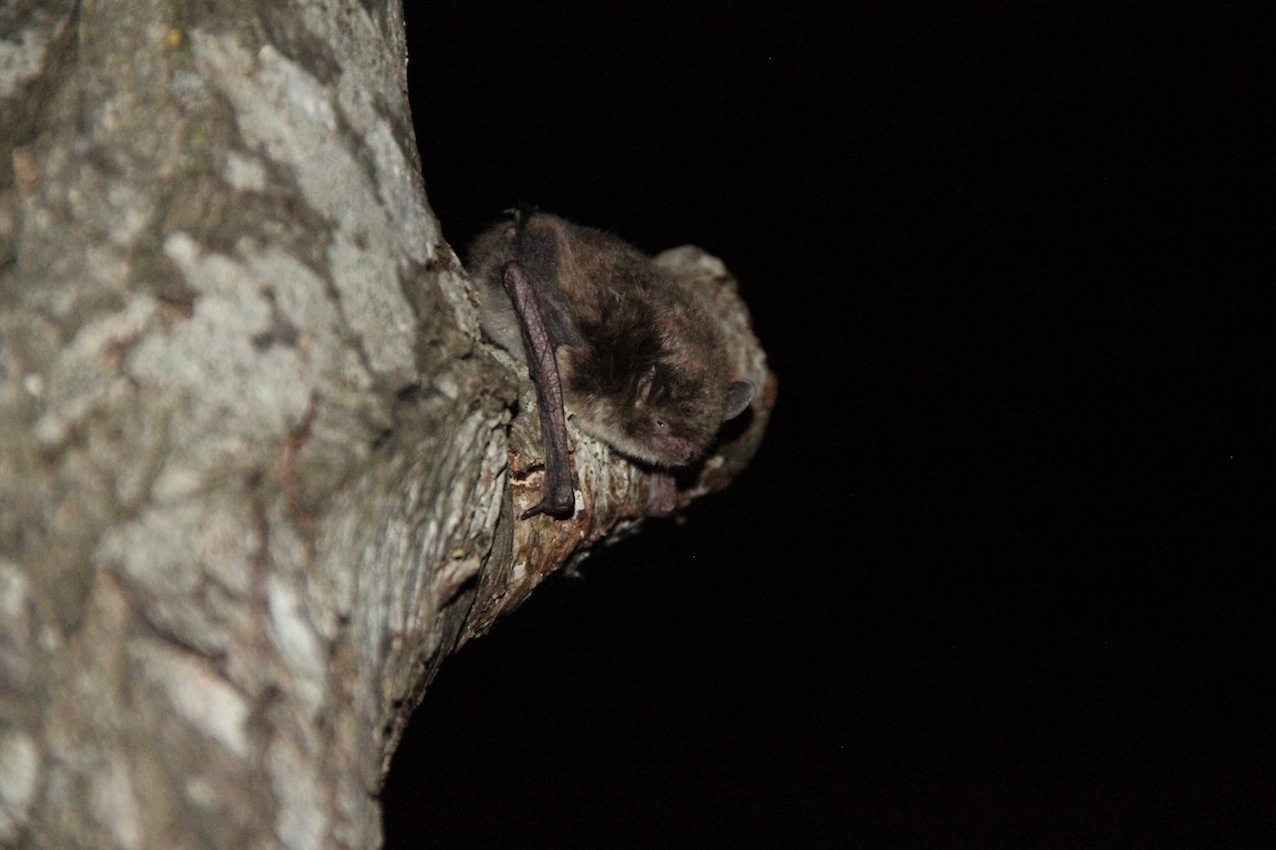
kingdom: Animalia
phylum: Chordata
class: Mammalia
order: Chiroptera
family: Vespertilionidae
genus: Myotis
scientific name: Myotis daubentonii
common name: Daubenton's myotis
